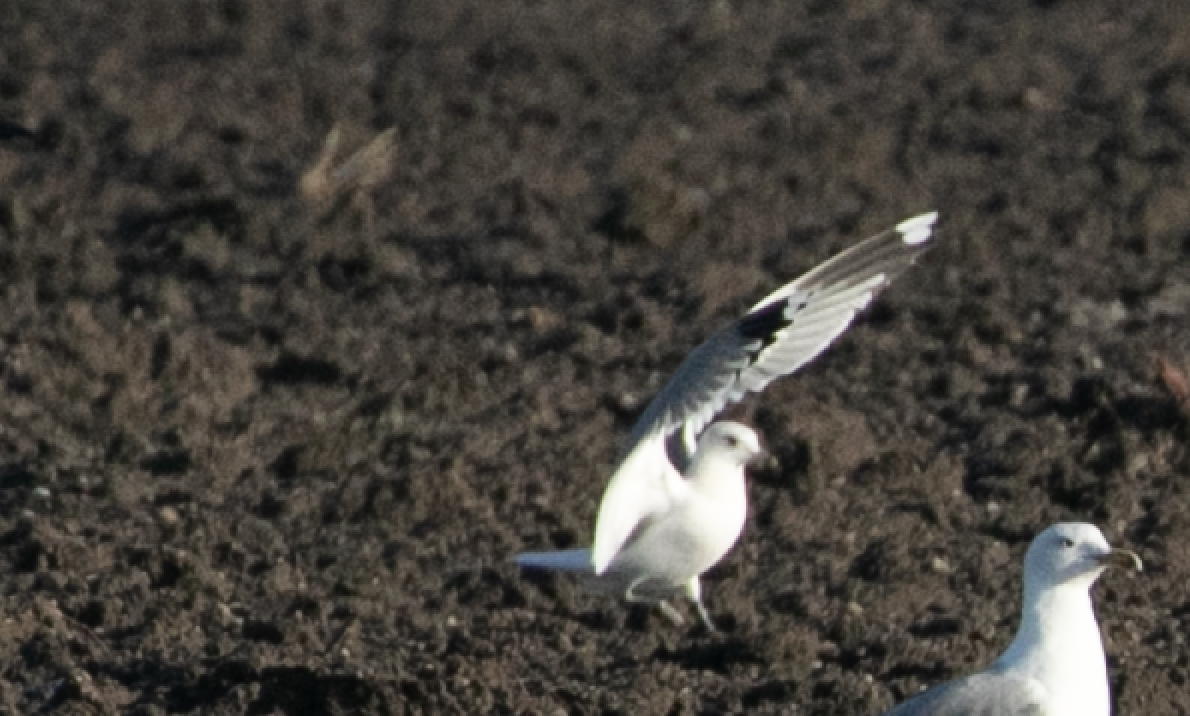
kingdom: Animalia
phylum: Chordata
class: Aves
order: Charadriiformes
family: Laridae
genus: Larus
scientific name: Larus canus
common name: Mew gull
